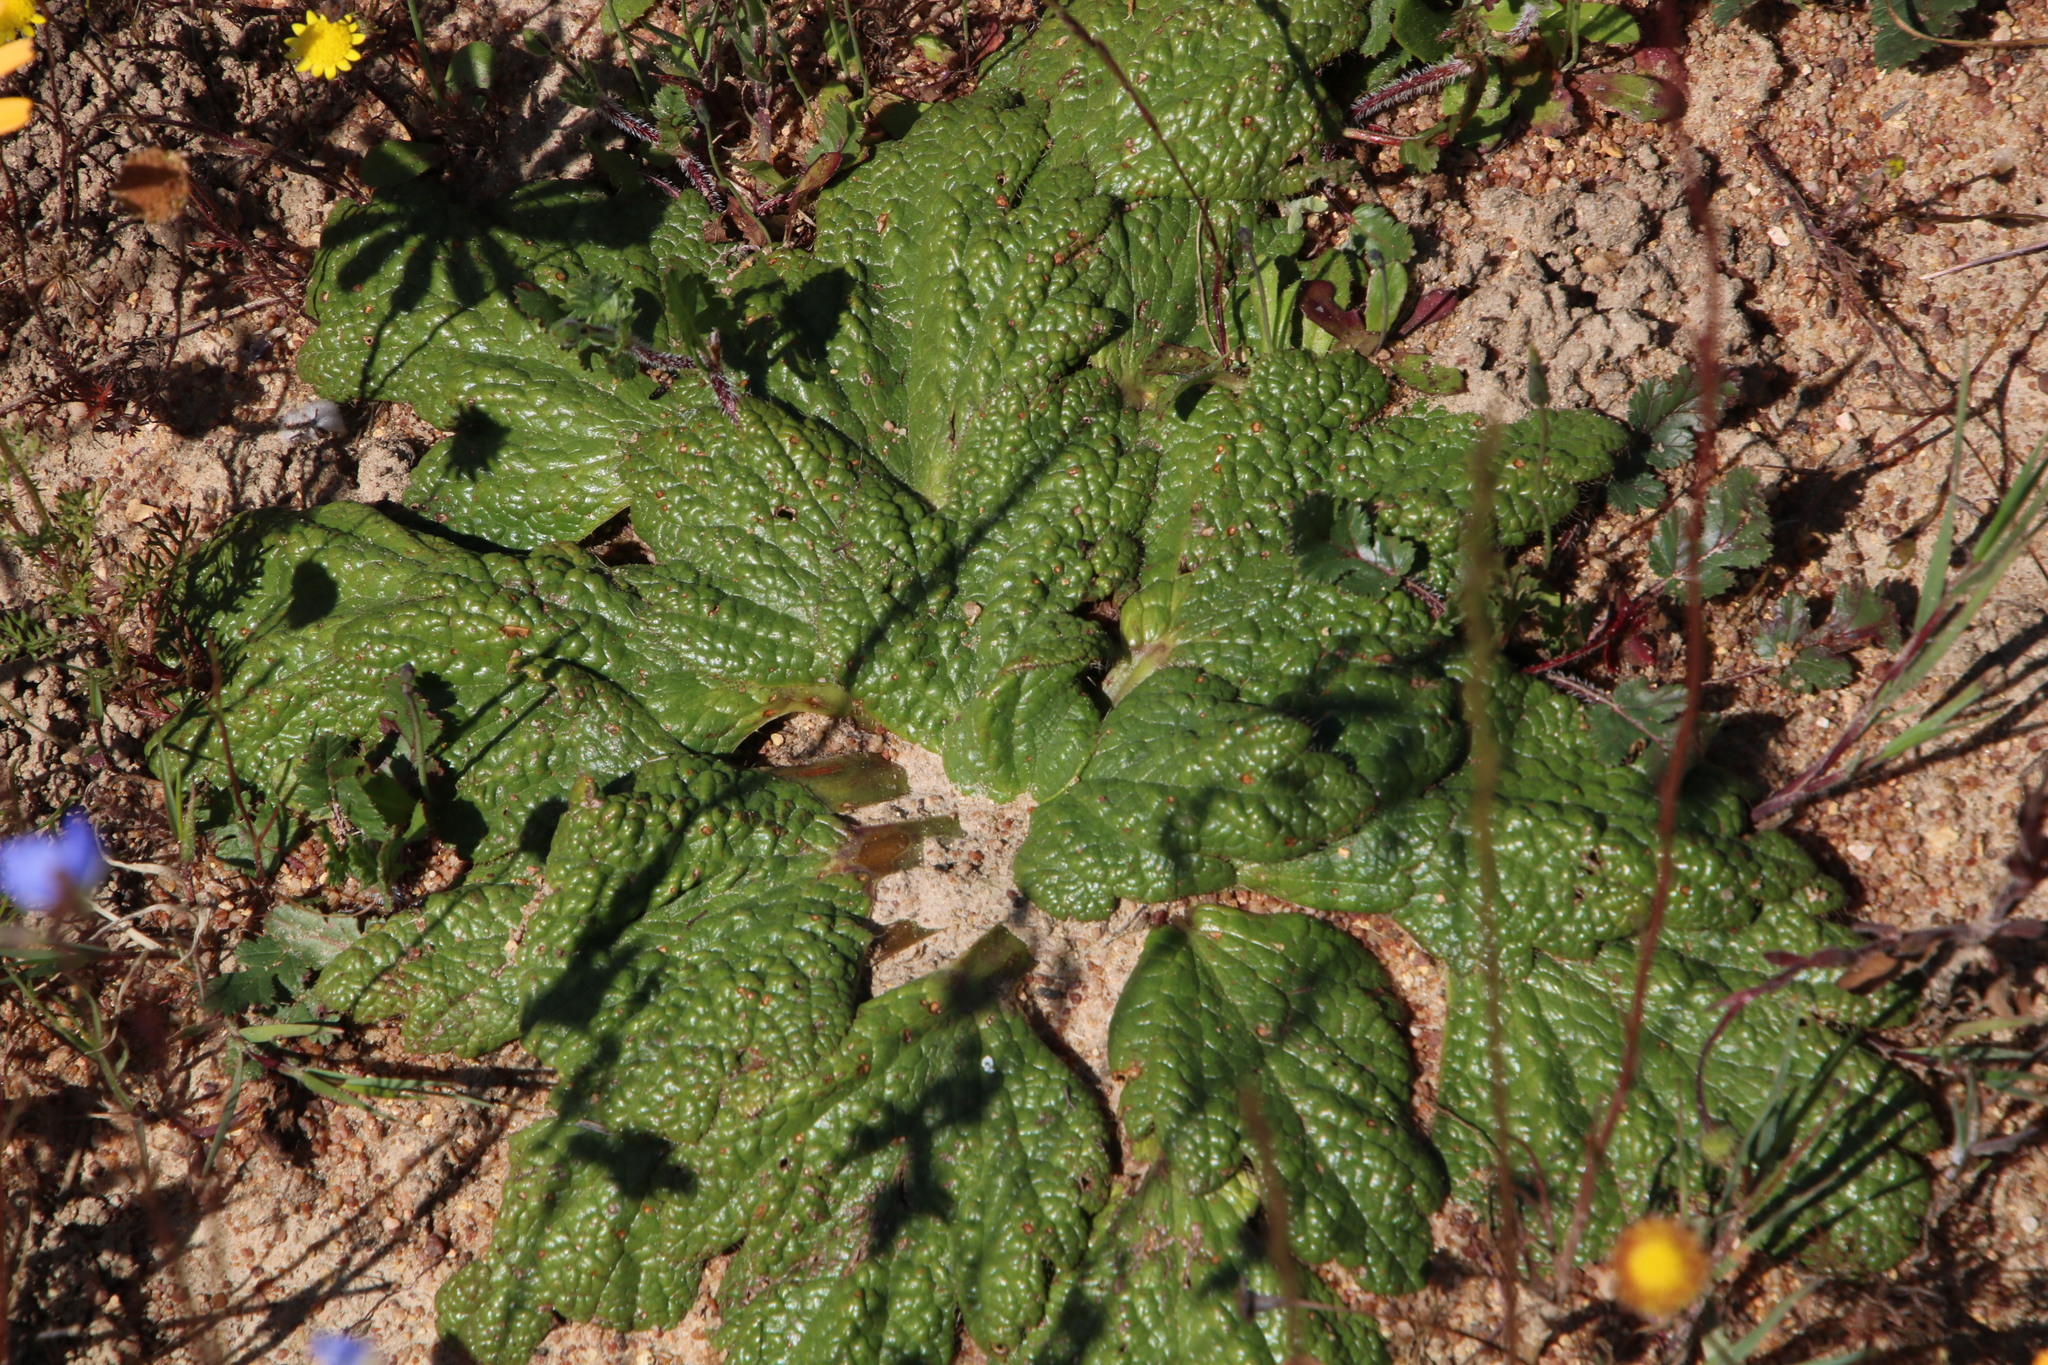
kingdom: Plantae
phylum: Tracheophyta
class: Magnoliopsida
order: Apiales
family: Apiaceae
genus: Arctopus
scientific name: Arctopus dregei
